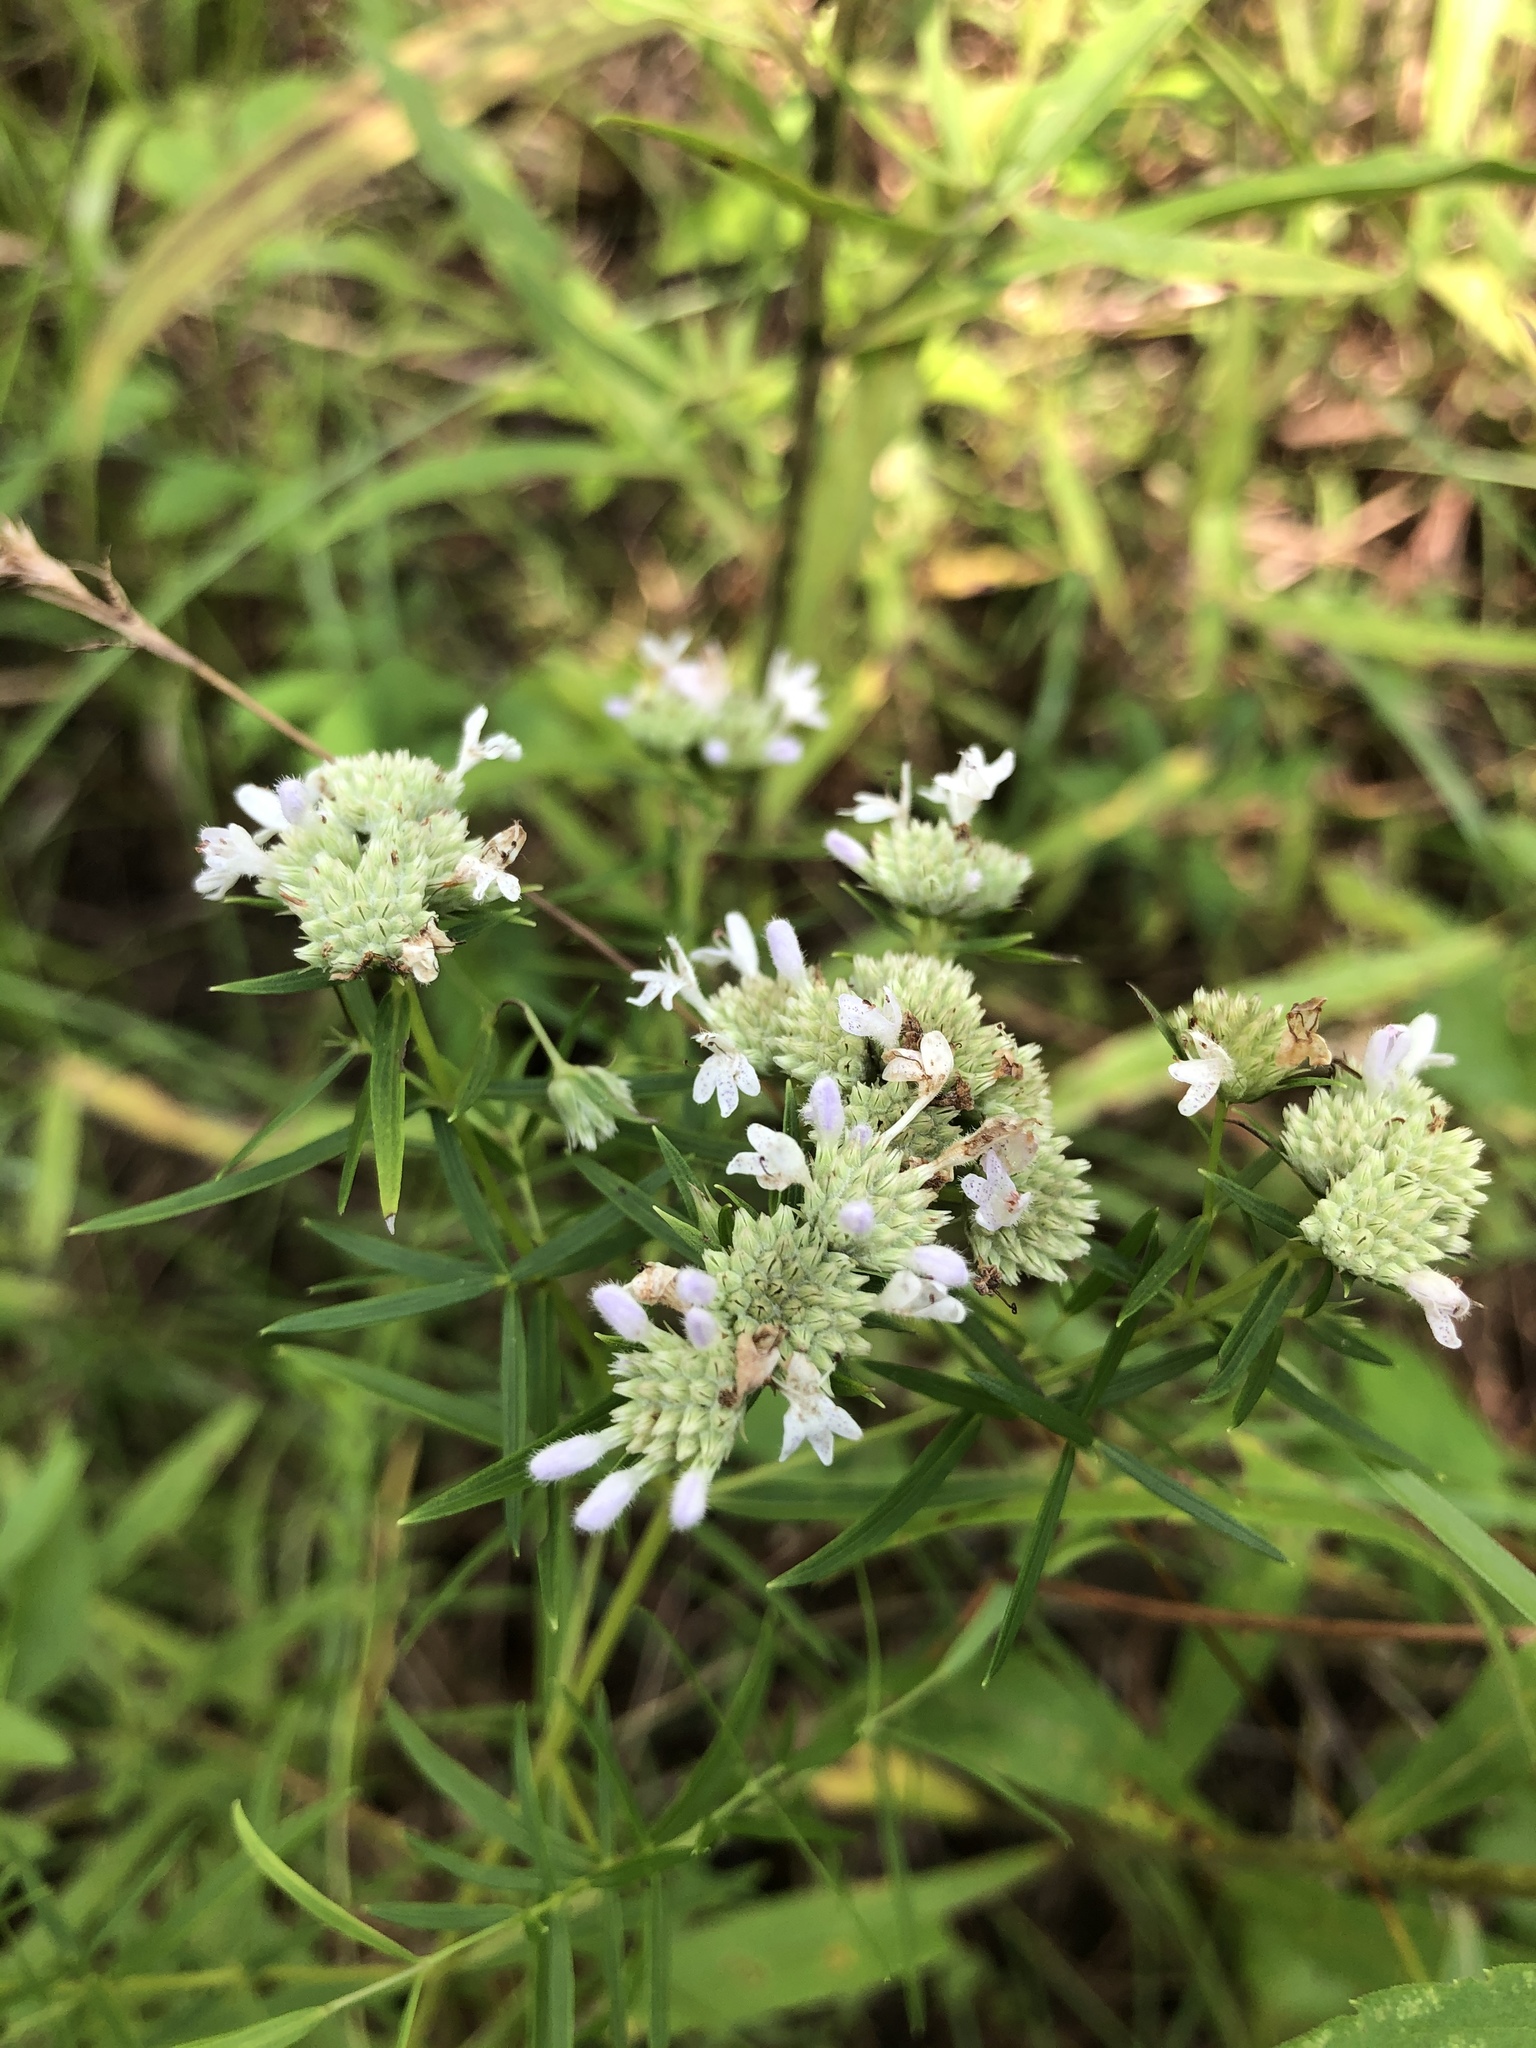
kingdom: Plantae
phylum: Tracheophyta
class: Magnoliopsida
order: Lamiales
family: Lamiaceae
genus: Pycnanthemum
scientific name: Pycnanthemum tenuifolium
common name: Narrow-leaf mountain-mint
